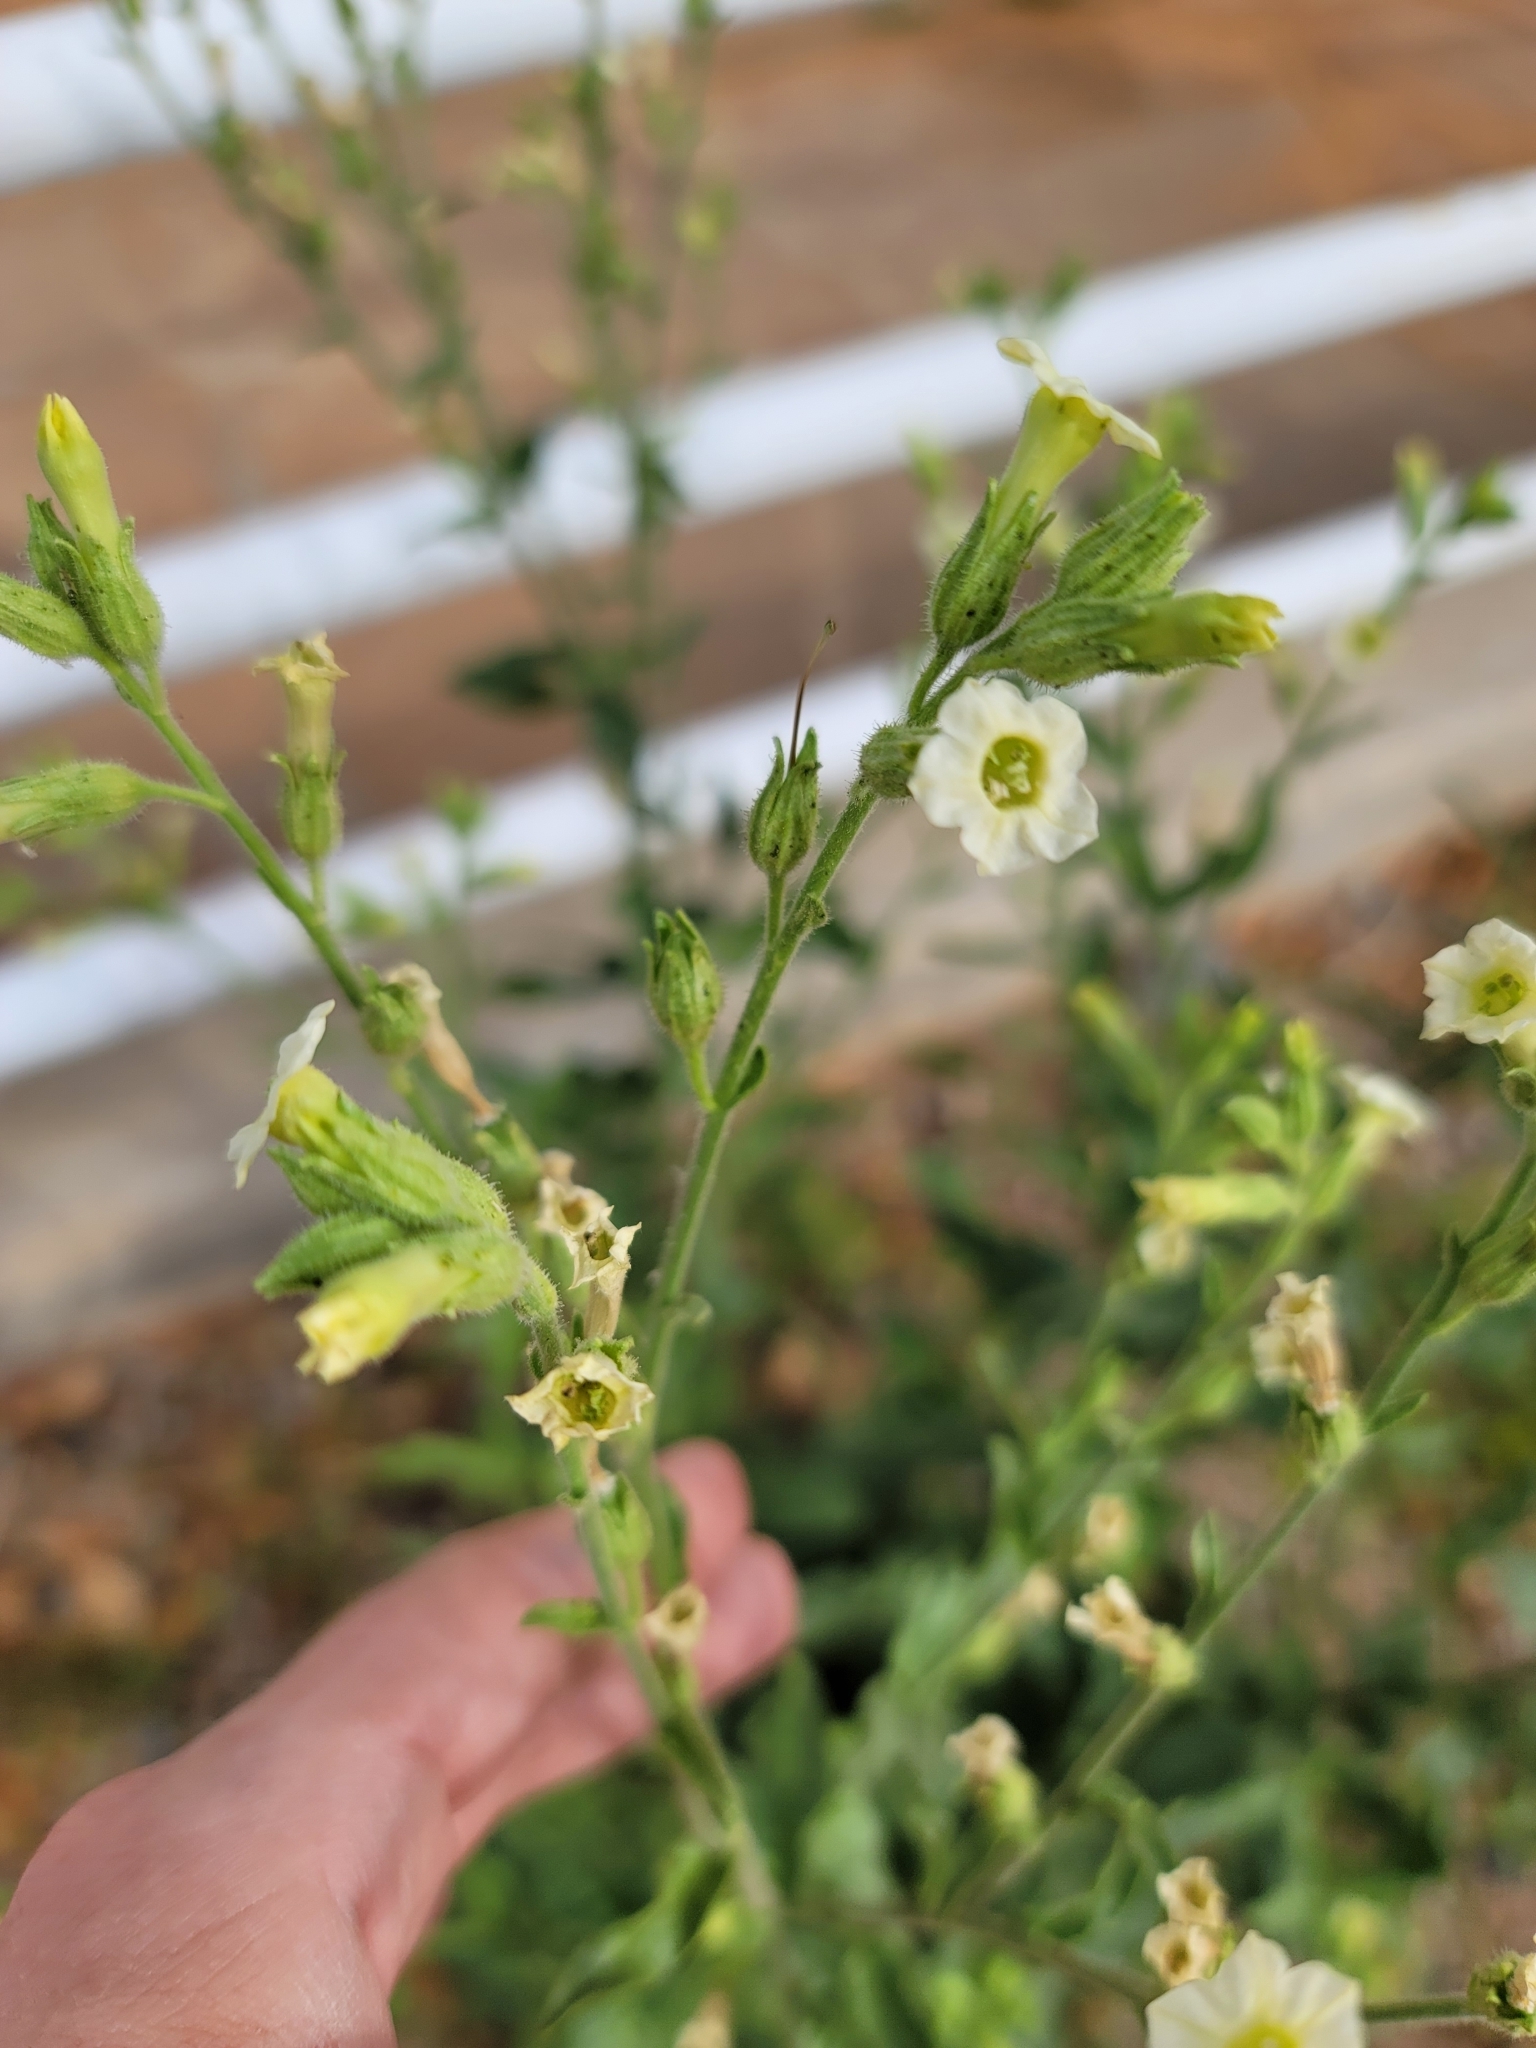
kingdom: Plantae
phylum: Tracheophyta
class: Magnoliopsida
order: Solanales
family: Solanaceae
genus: Nicotiana
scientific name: Nicotiana obtusifolia
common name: Desert tobacco
